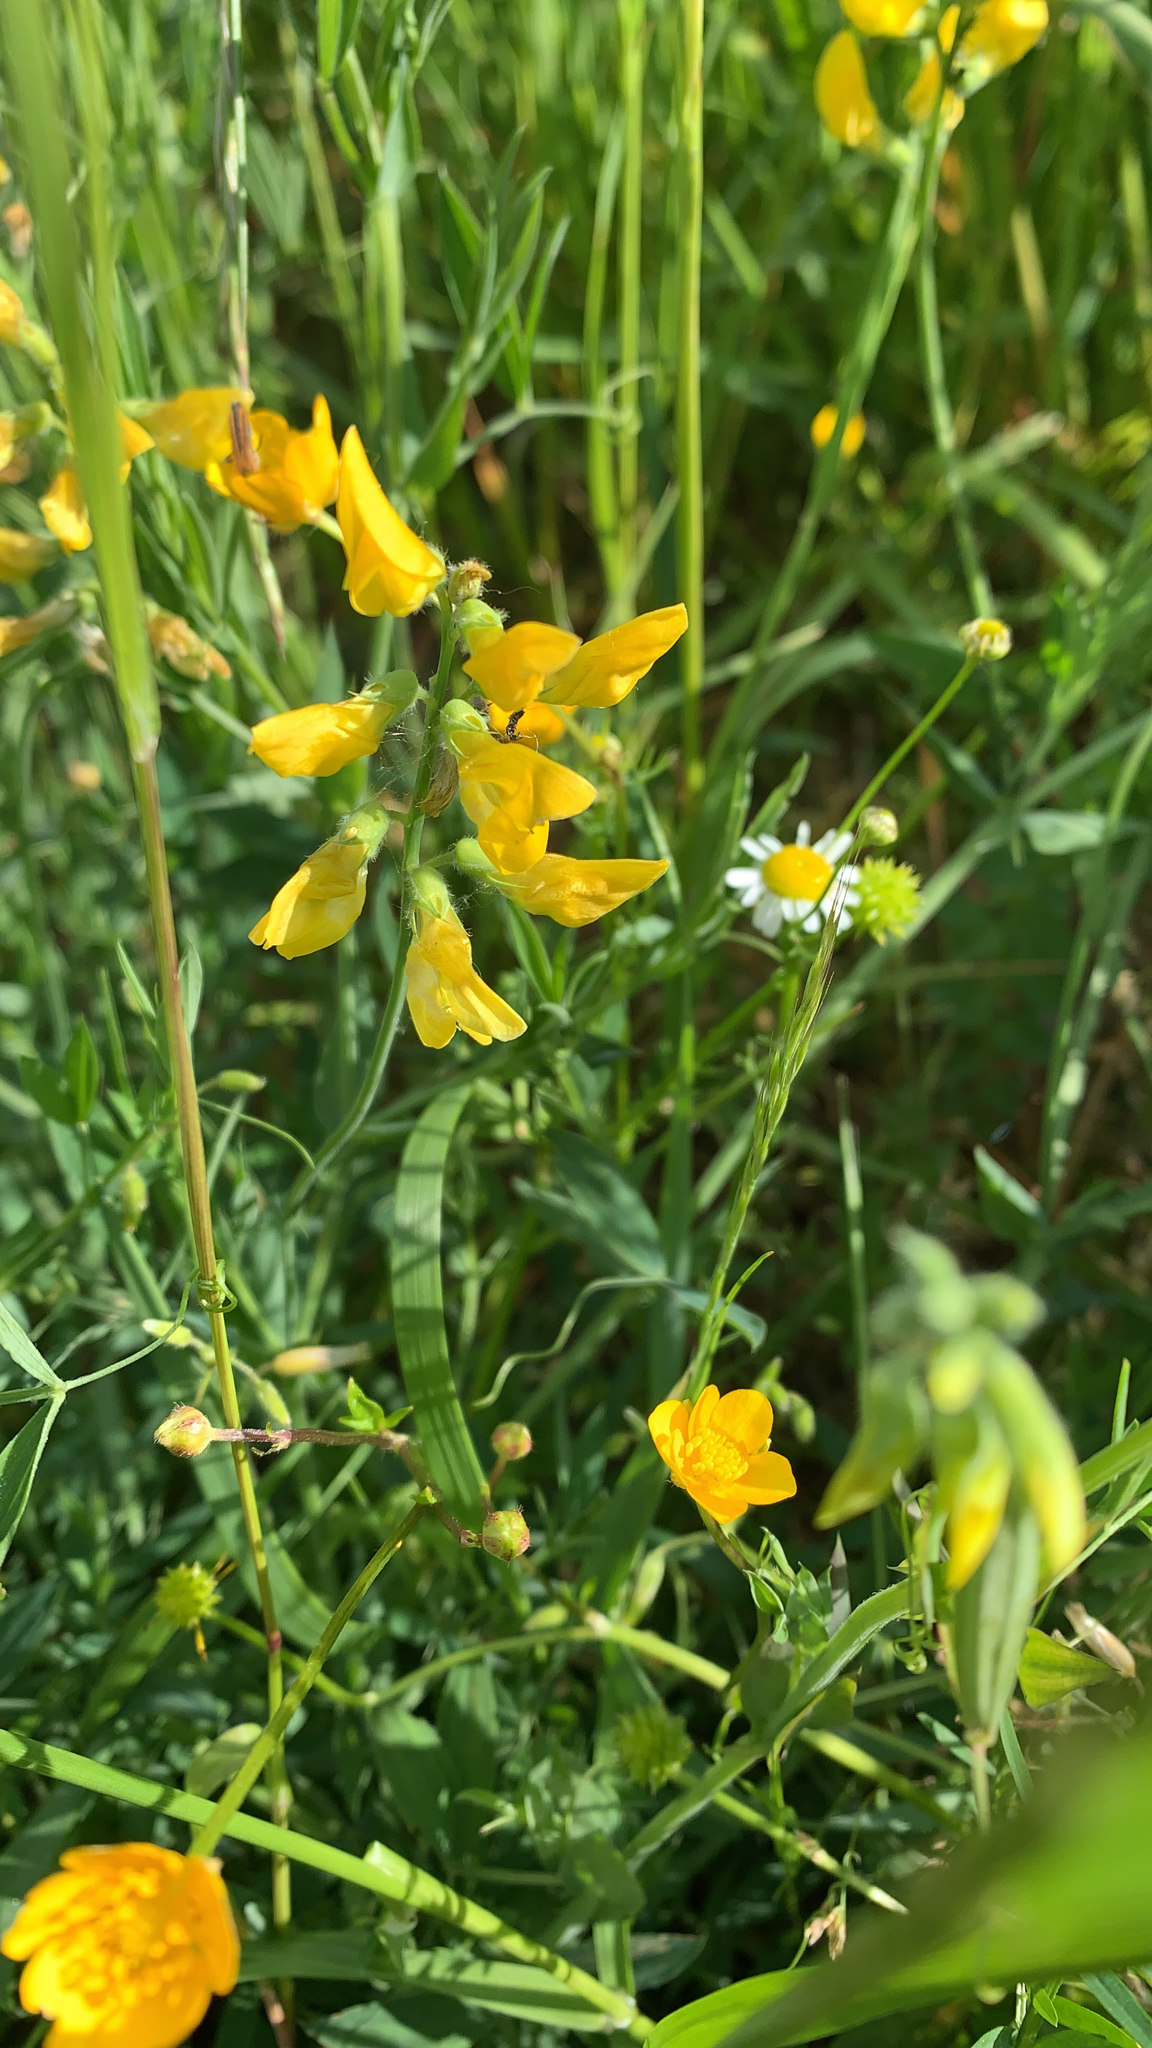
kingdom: Plantae
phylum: Tracheophyta
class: Magnoliopsida
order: Fabales
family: Fabaceae
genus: Lathyrus
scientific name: Lathyrus pratensis
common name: Meadow vetchling
